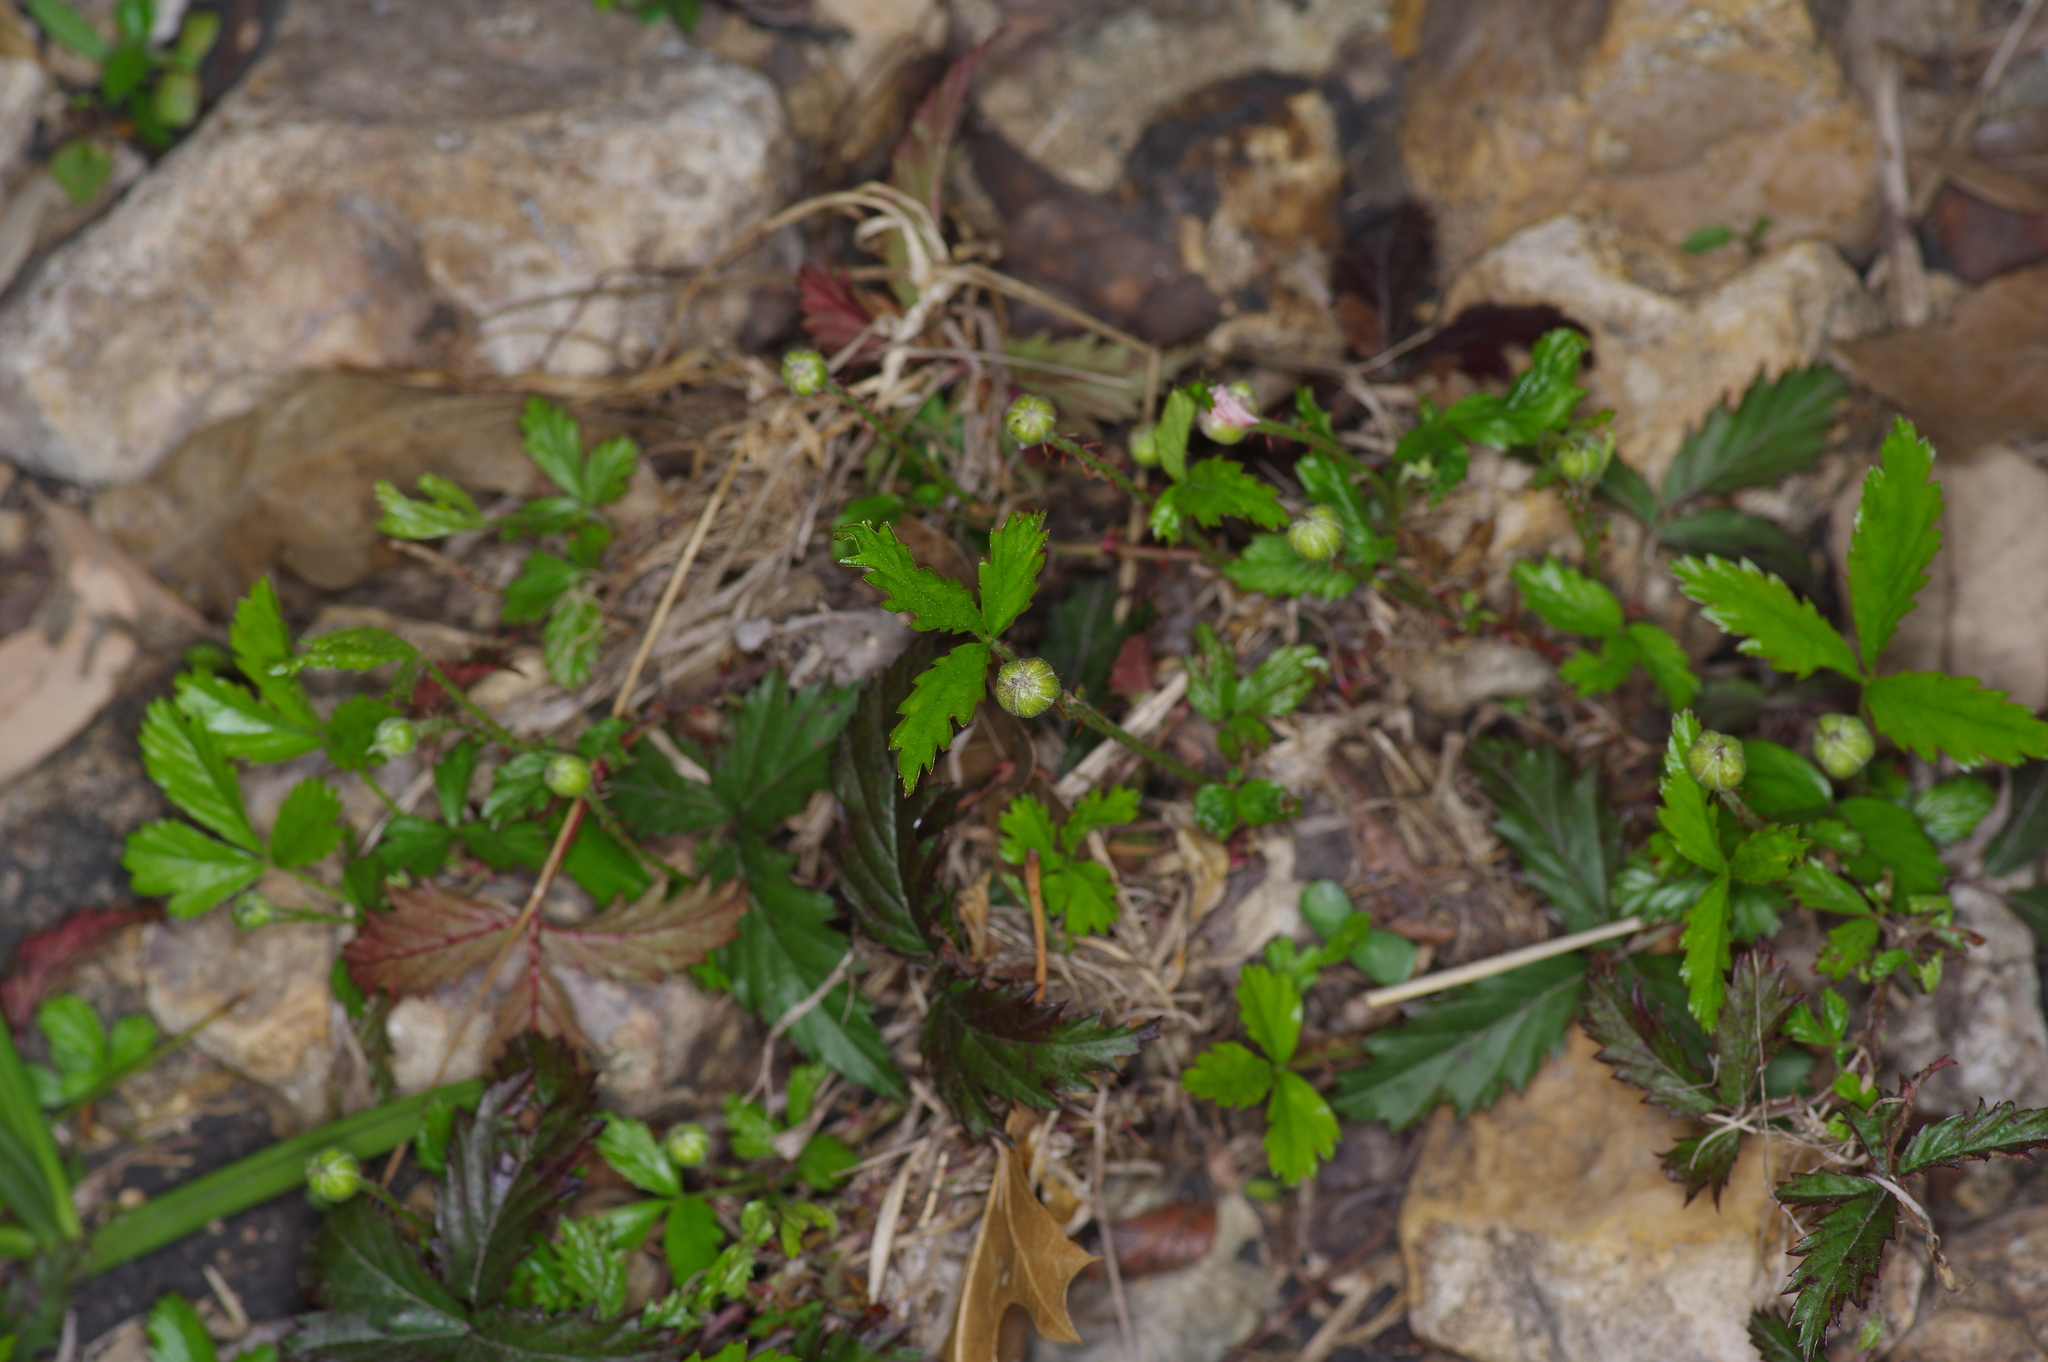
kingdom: Plantae
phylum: Tracheophyta
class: Magnoliopsida
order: Rosales
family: Rosaceae
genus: Rubus
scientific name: Rubus trivialis
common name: Southern dewberry
